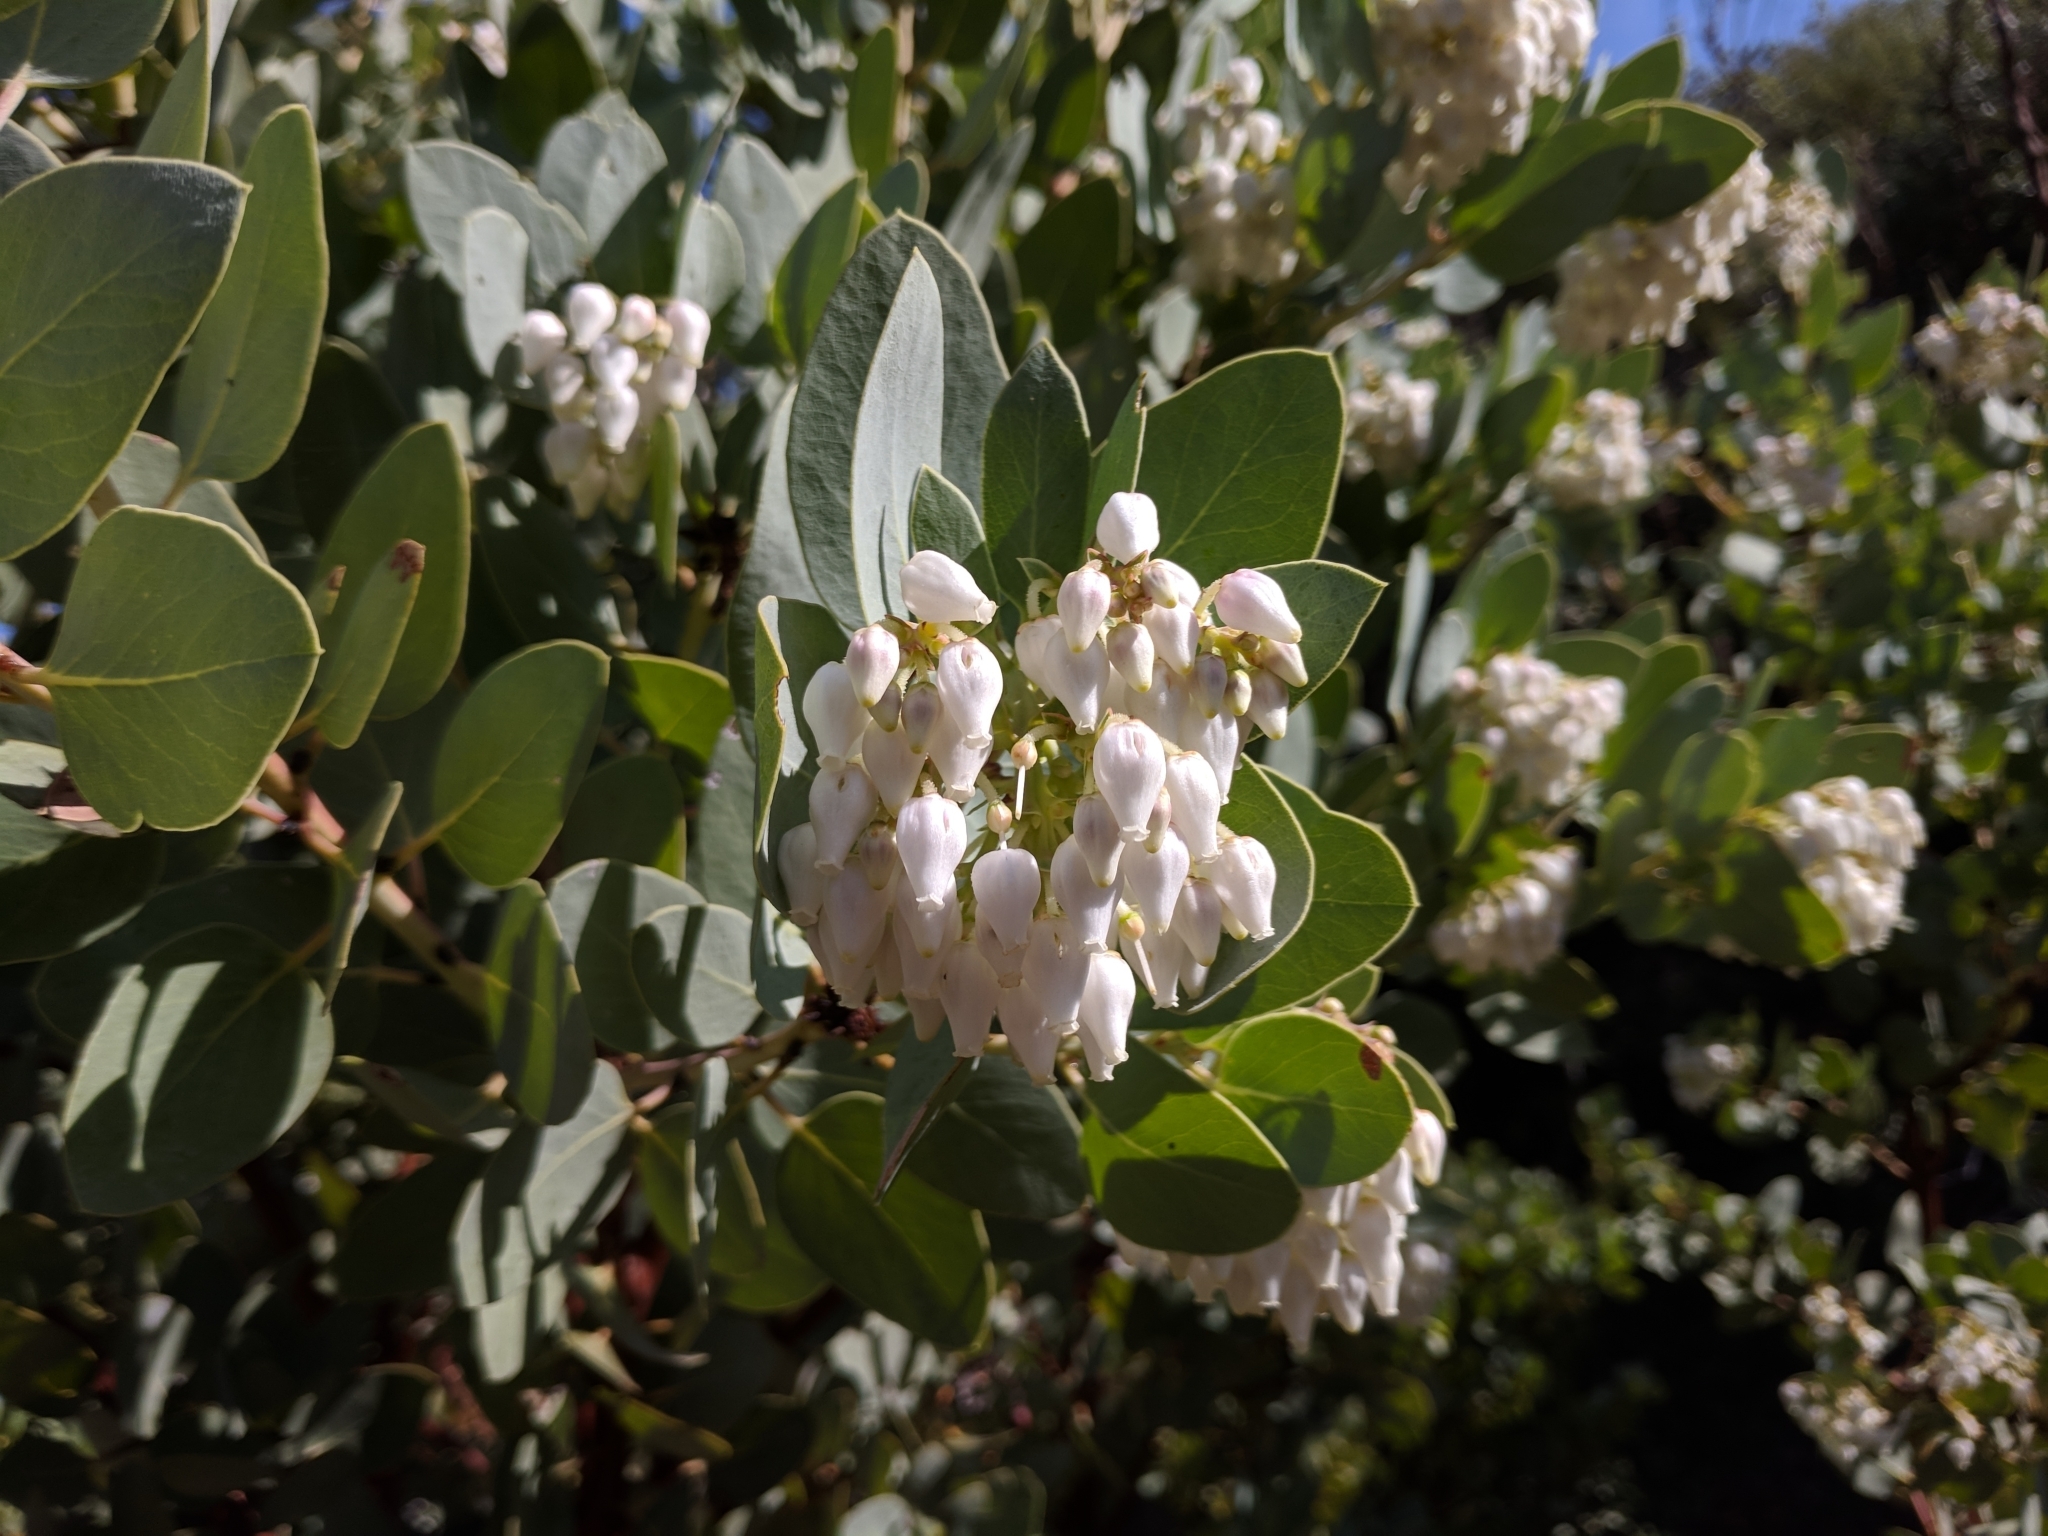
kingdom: Plantae
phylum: Tracheophyta
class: Magnoliopsida
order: Ericales
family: Ericaceae
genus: Arctostaphylos
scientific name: Arctostaphylos glauca
